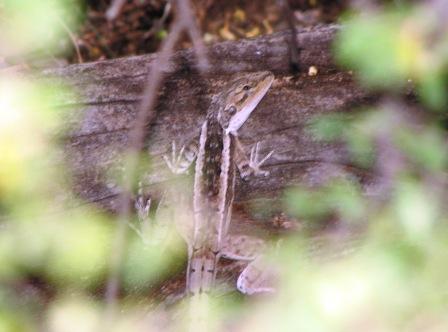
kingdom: Animalia
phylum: Chordata
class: Squamata
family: Agamidae
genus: Amphibolurus
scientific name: Amphibolurus burnsi
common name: Burn's dragon
